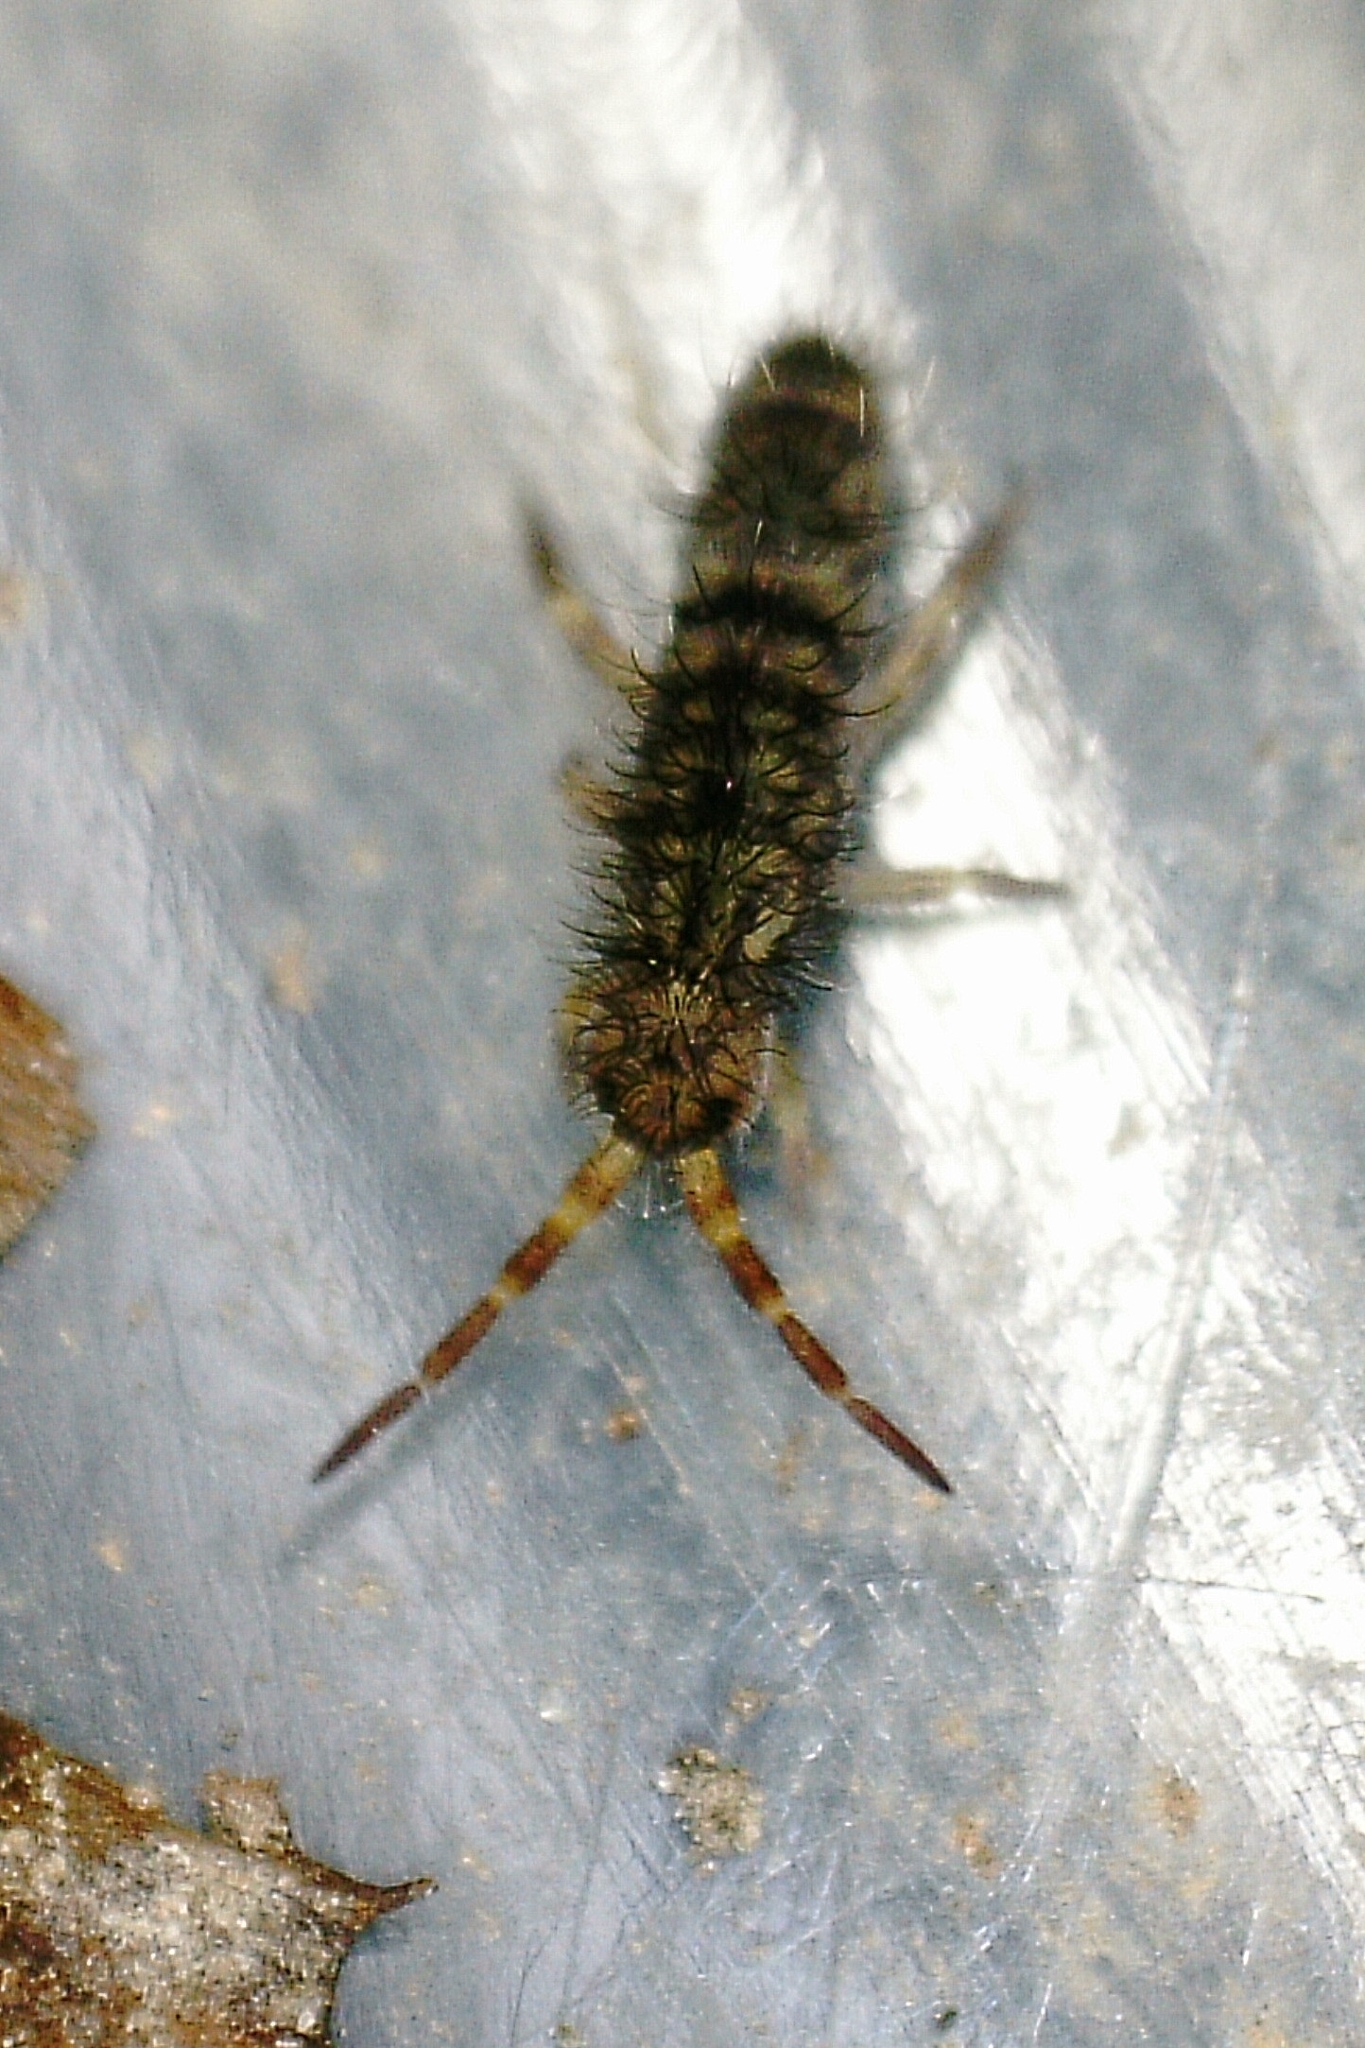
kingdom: Animalia
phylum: Arthropoda
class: Collembola
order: Entomobryomorpha
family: Orchesellidae
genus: Orchesella
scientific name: Orchesella villosa
